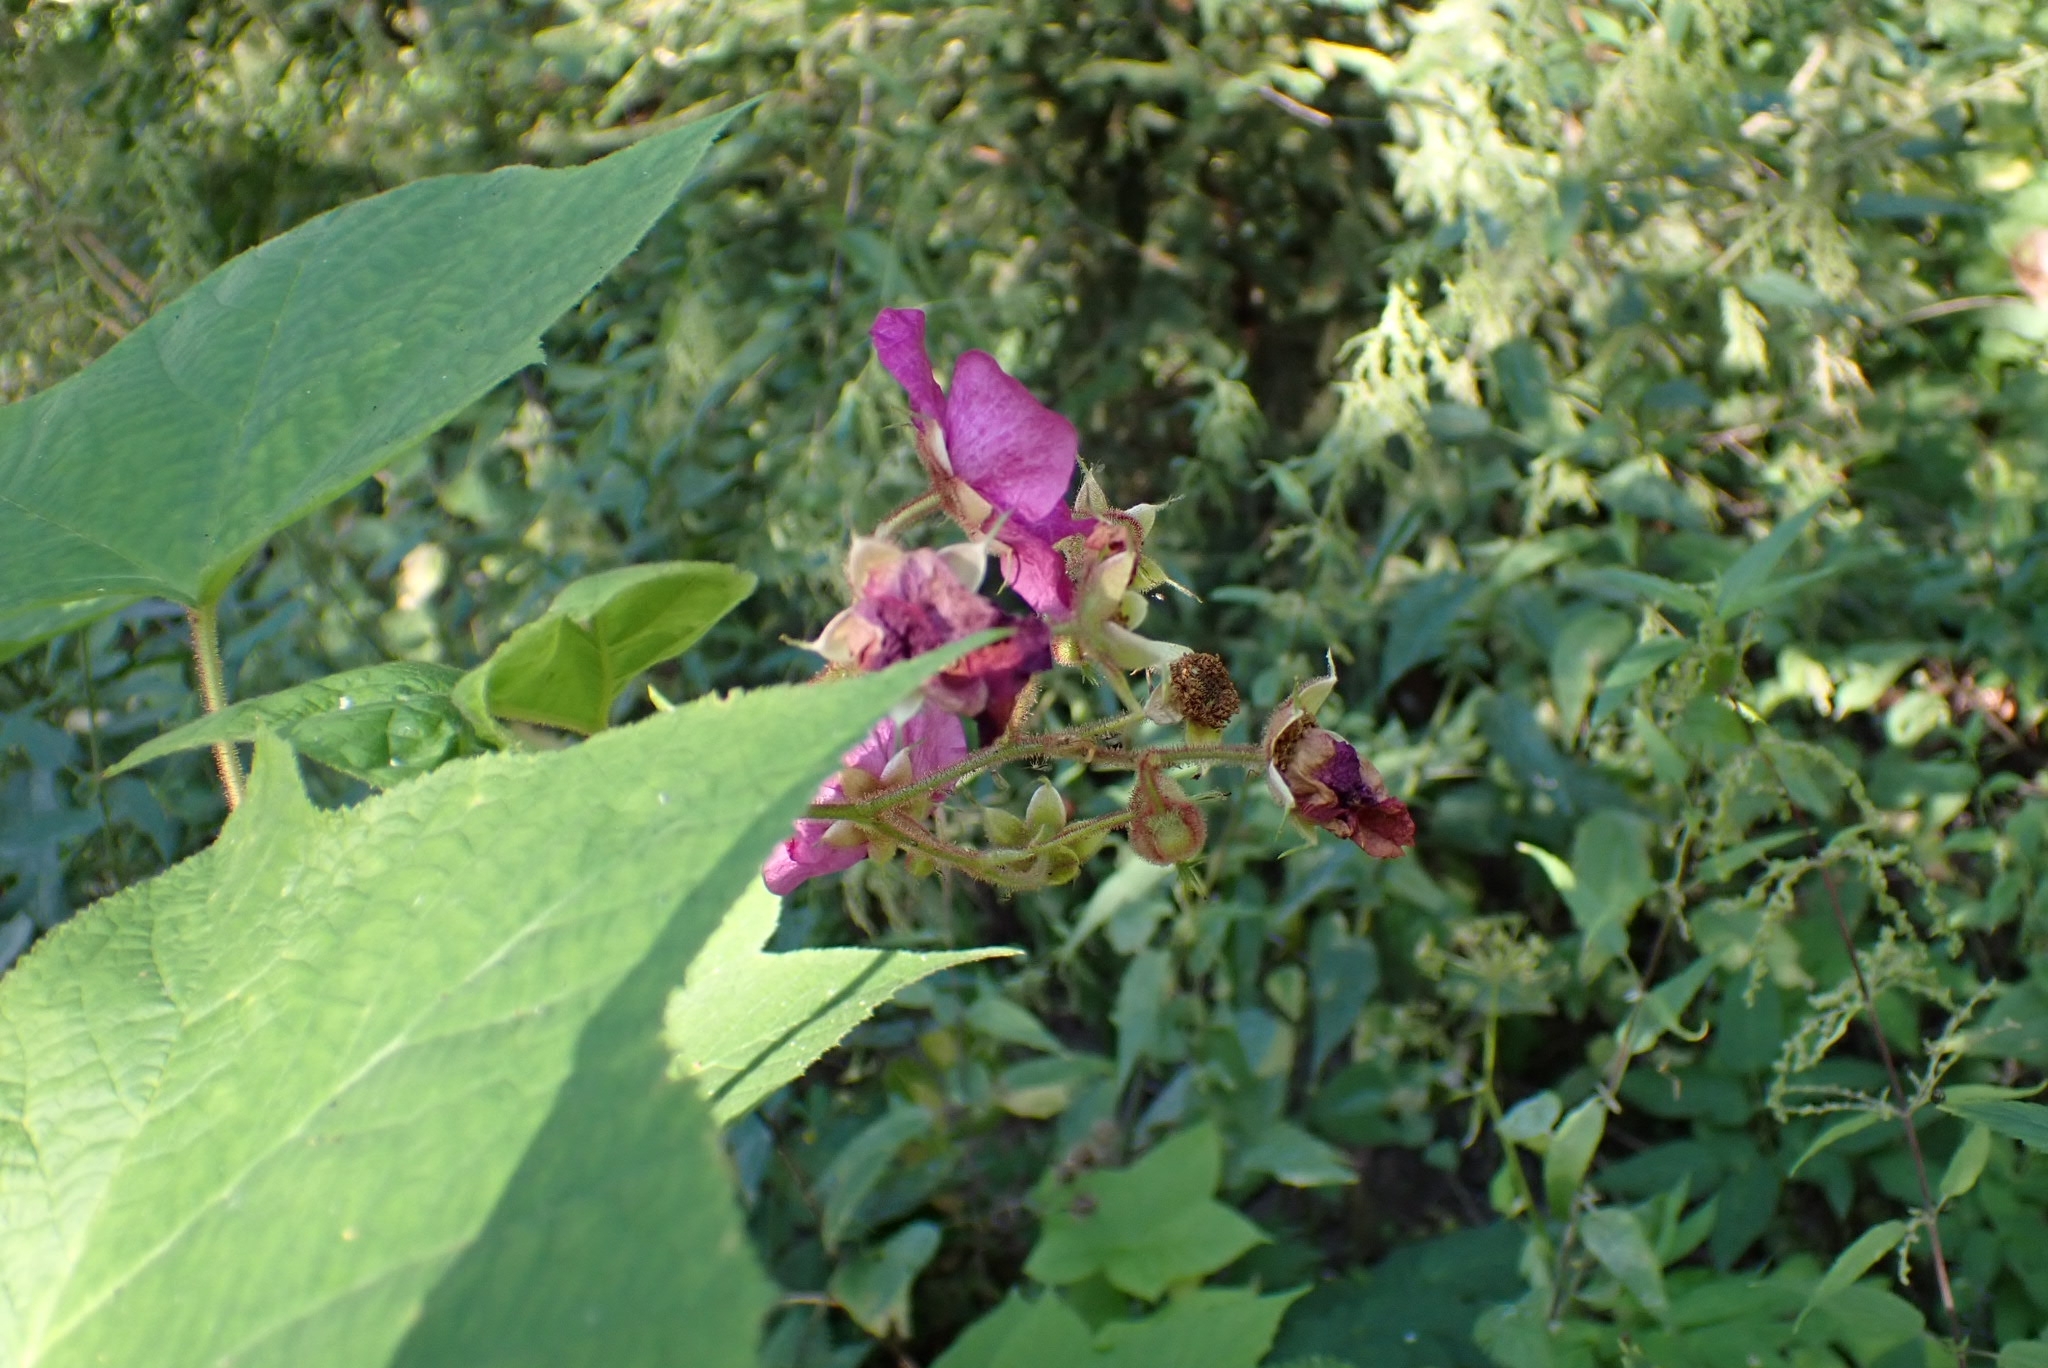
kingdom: Plantae
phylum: Tracheophyta
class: Magnoliopsida
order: Ericales
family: Balsaminaceae
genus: Impatiens
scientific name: Impatiens glandulifera
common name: Himalayan balsam
